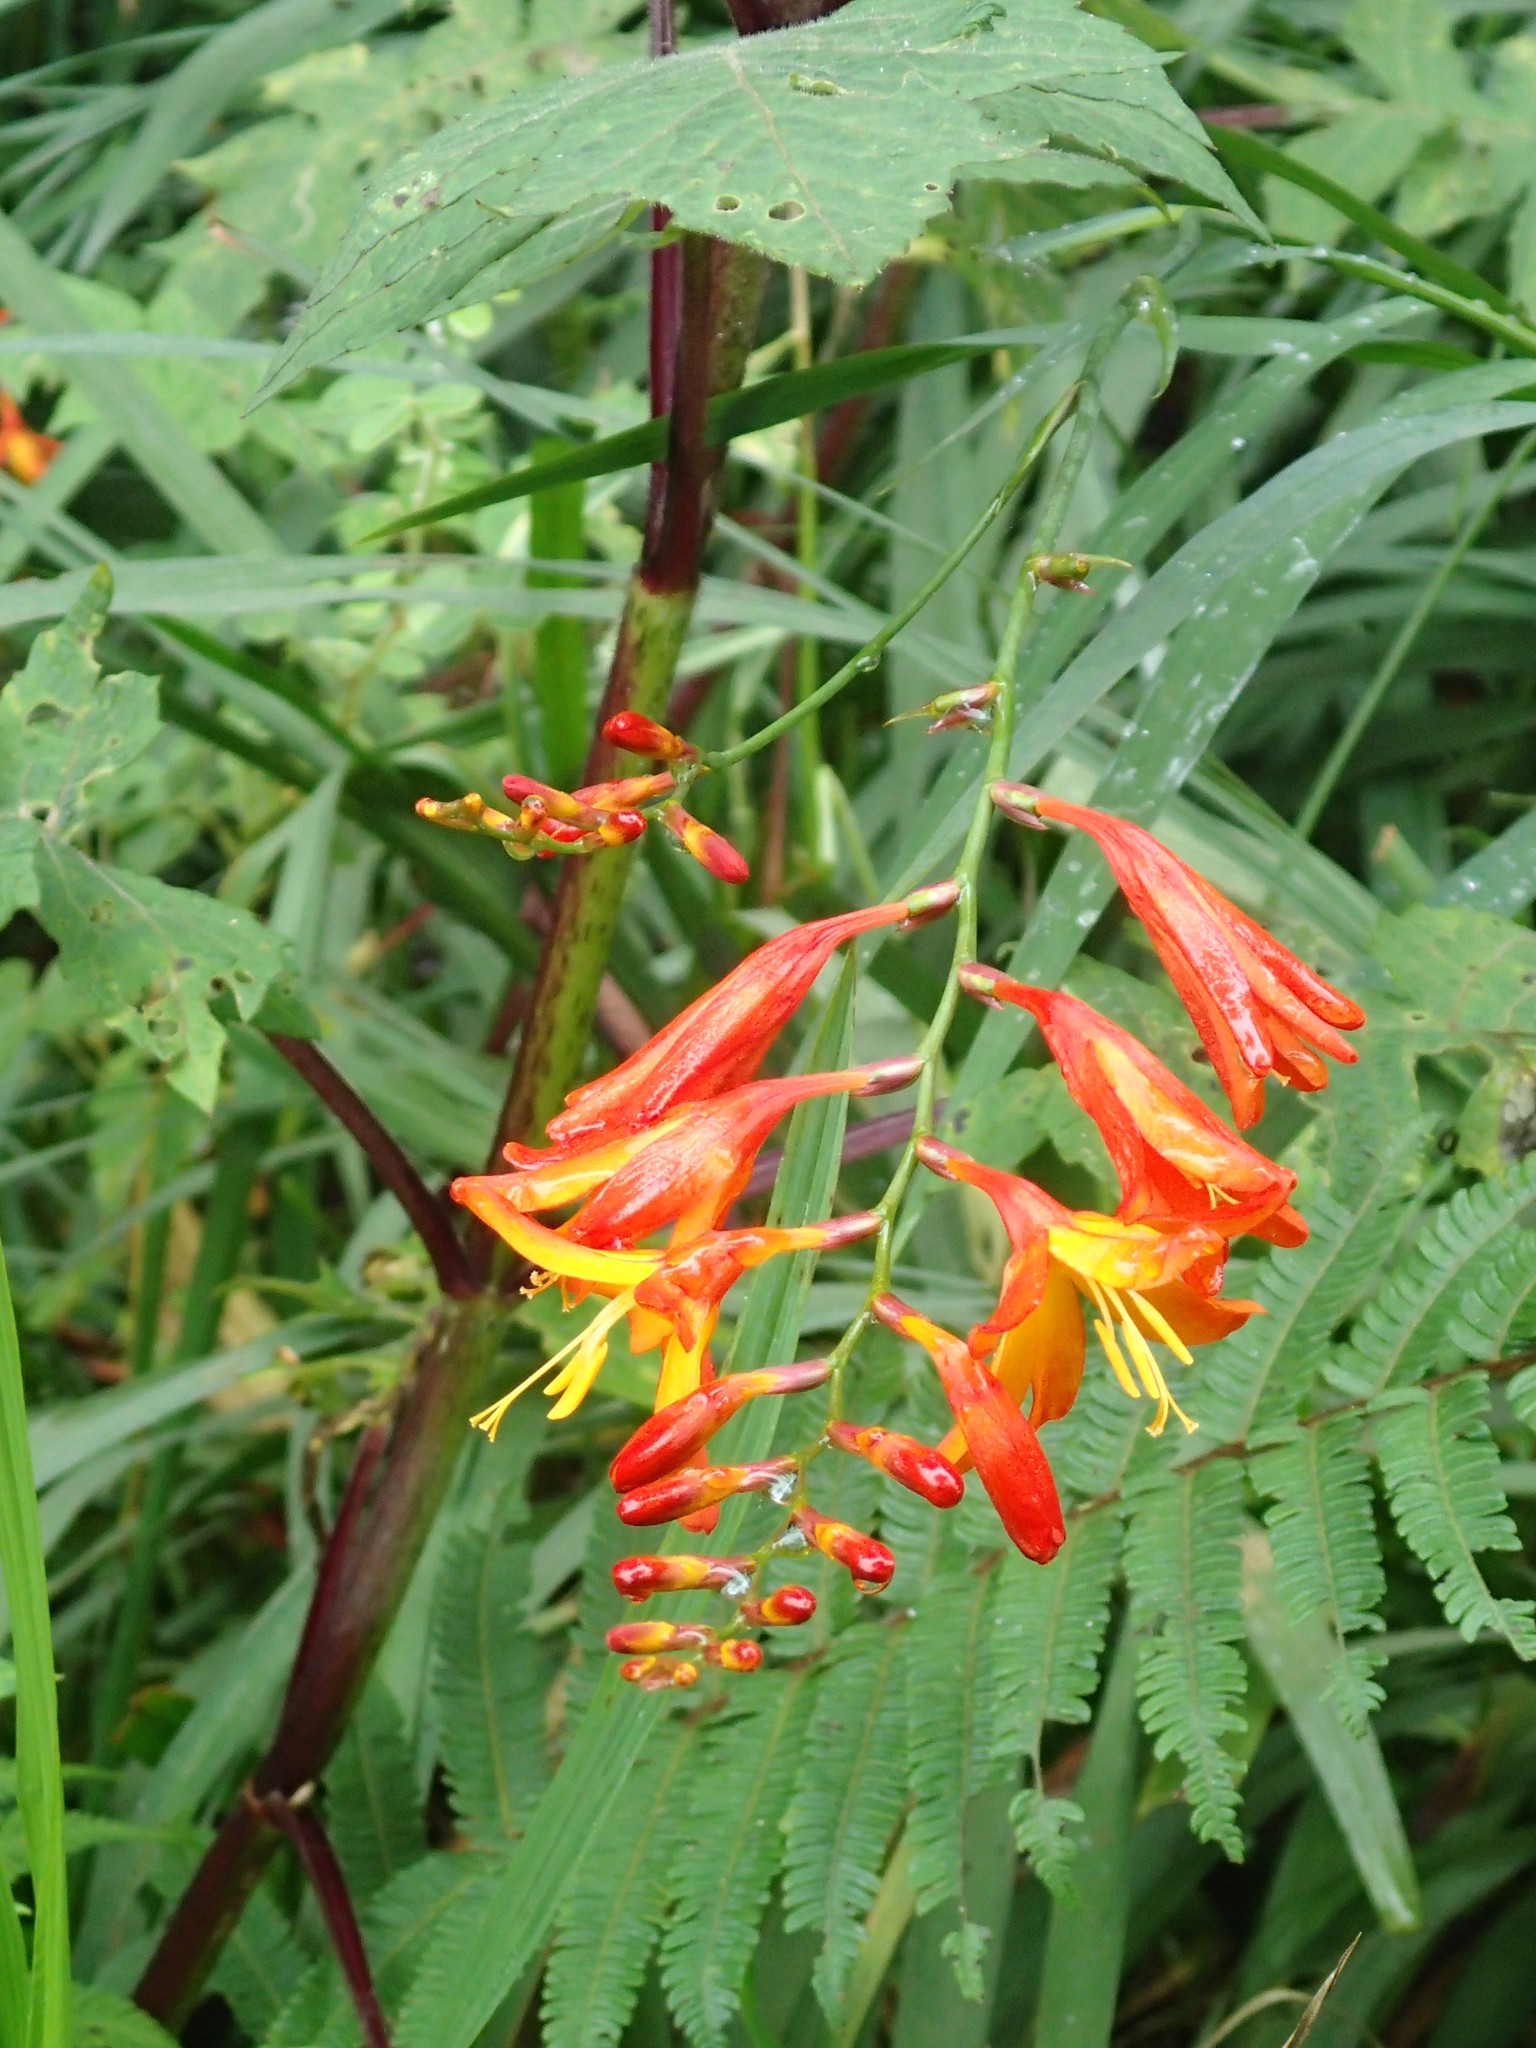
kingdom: Plantae
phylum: Tracheophyta
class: Liliopsida
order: Asparagales
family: Iridaceae
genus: Crocosmia
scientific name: Crocosmia crocosmiiflora
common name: Montbretia
